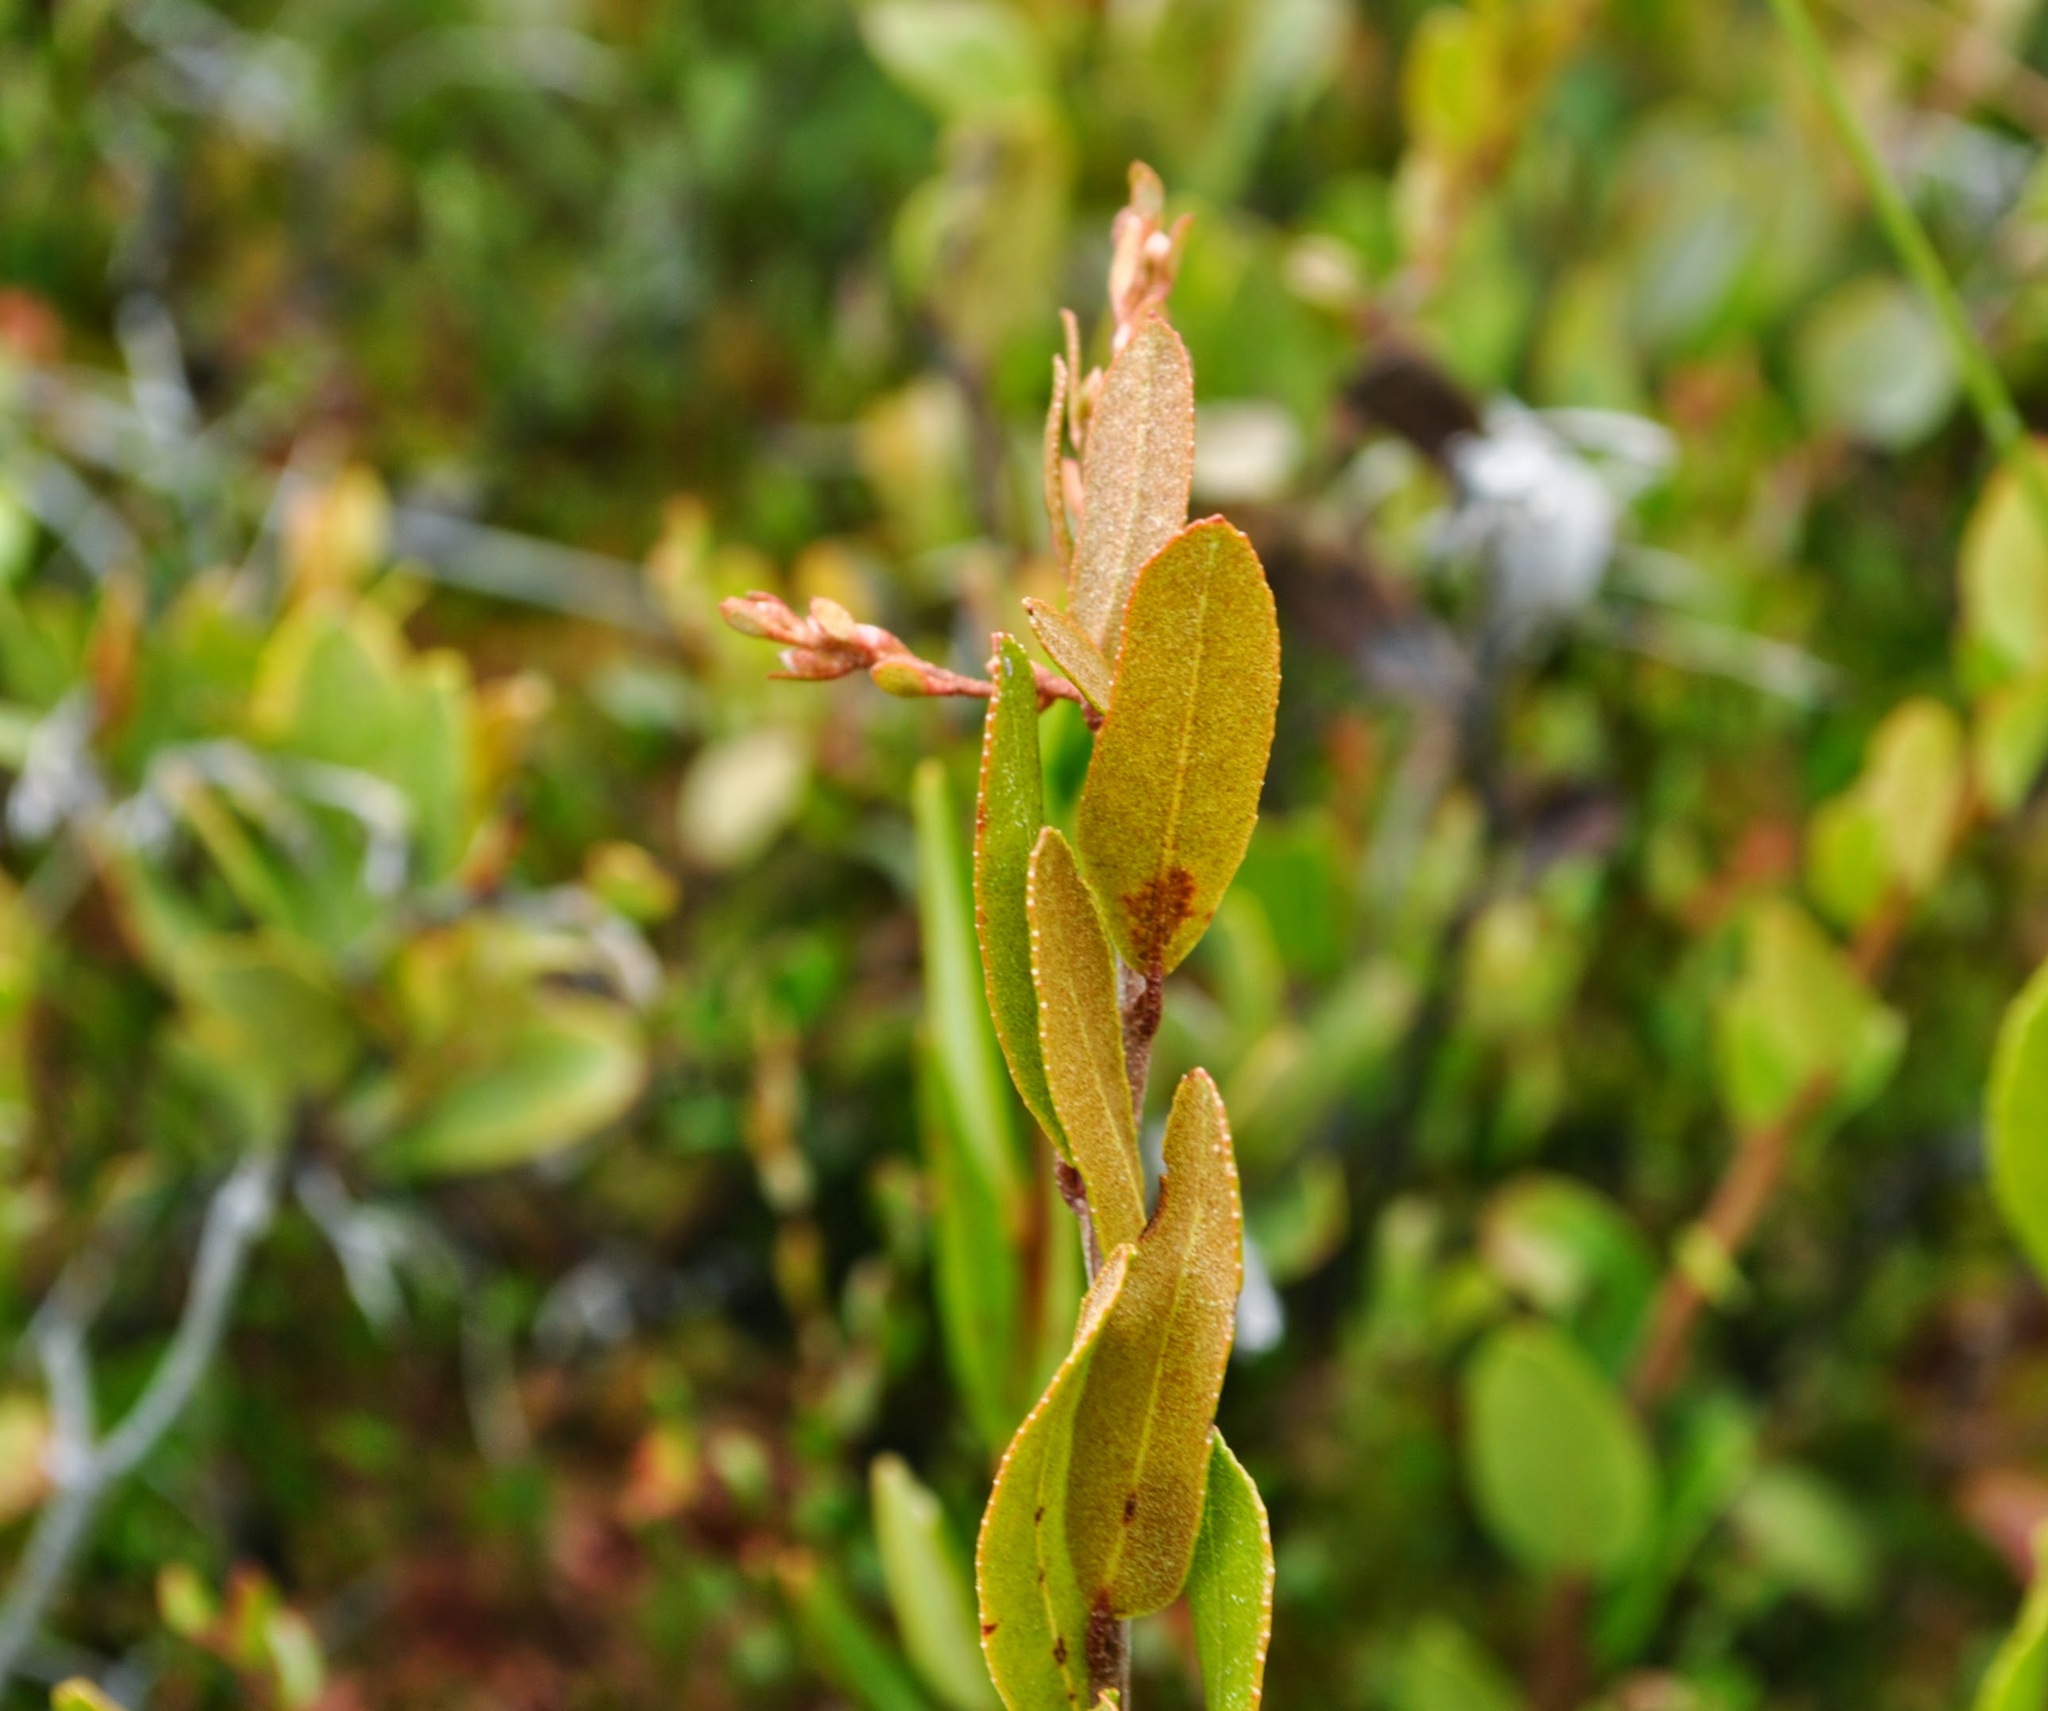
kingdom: Plantae
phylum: Tracheophyta
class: Magnoliopsida
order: Ericales
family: Ericaceae
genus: Chamaedaphne
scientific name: Chamaedaphne calyculata
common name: Leatherleaf
